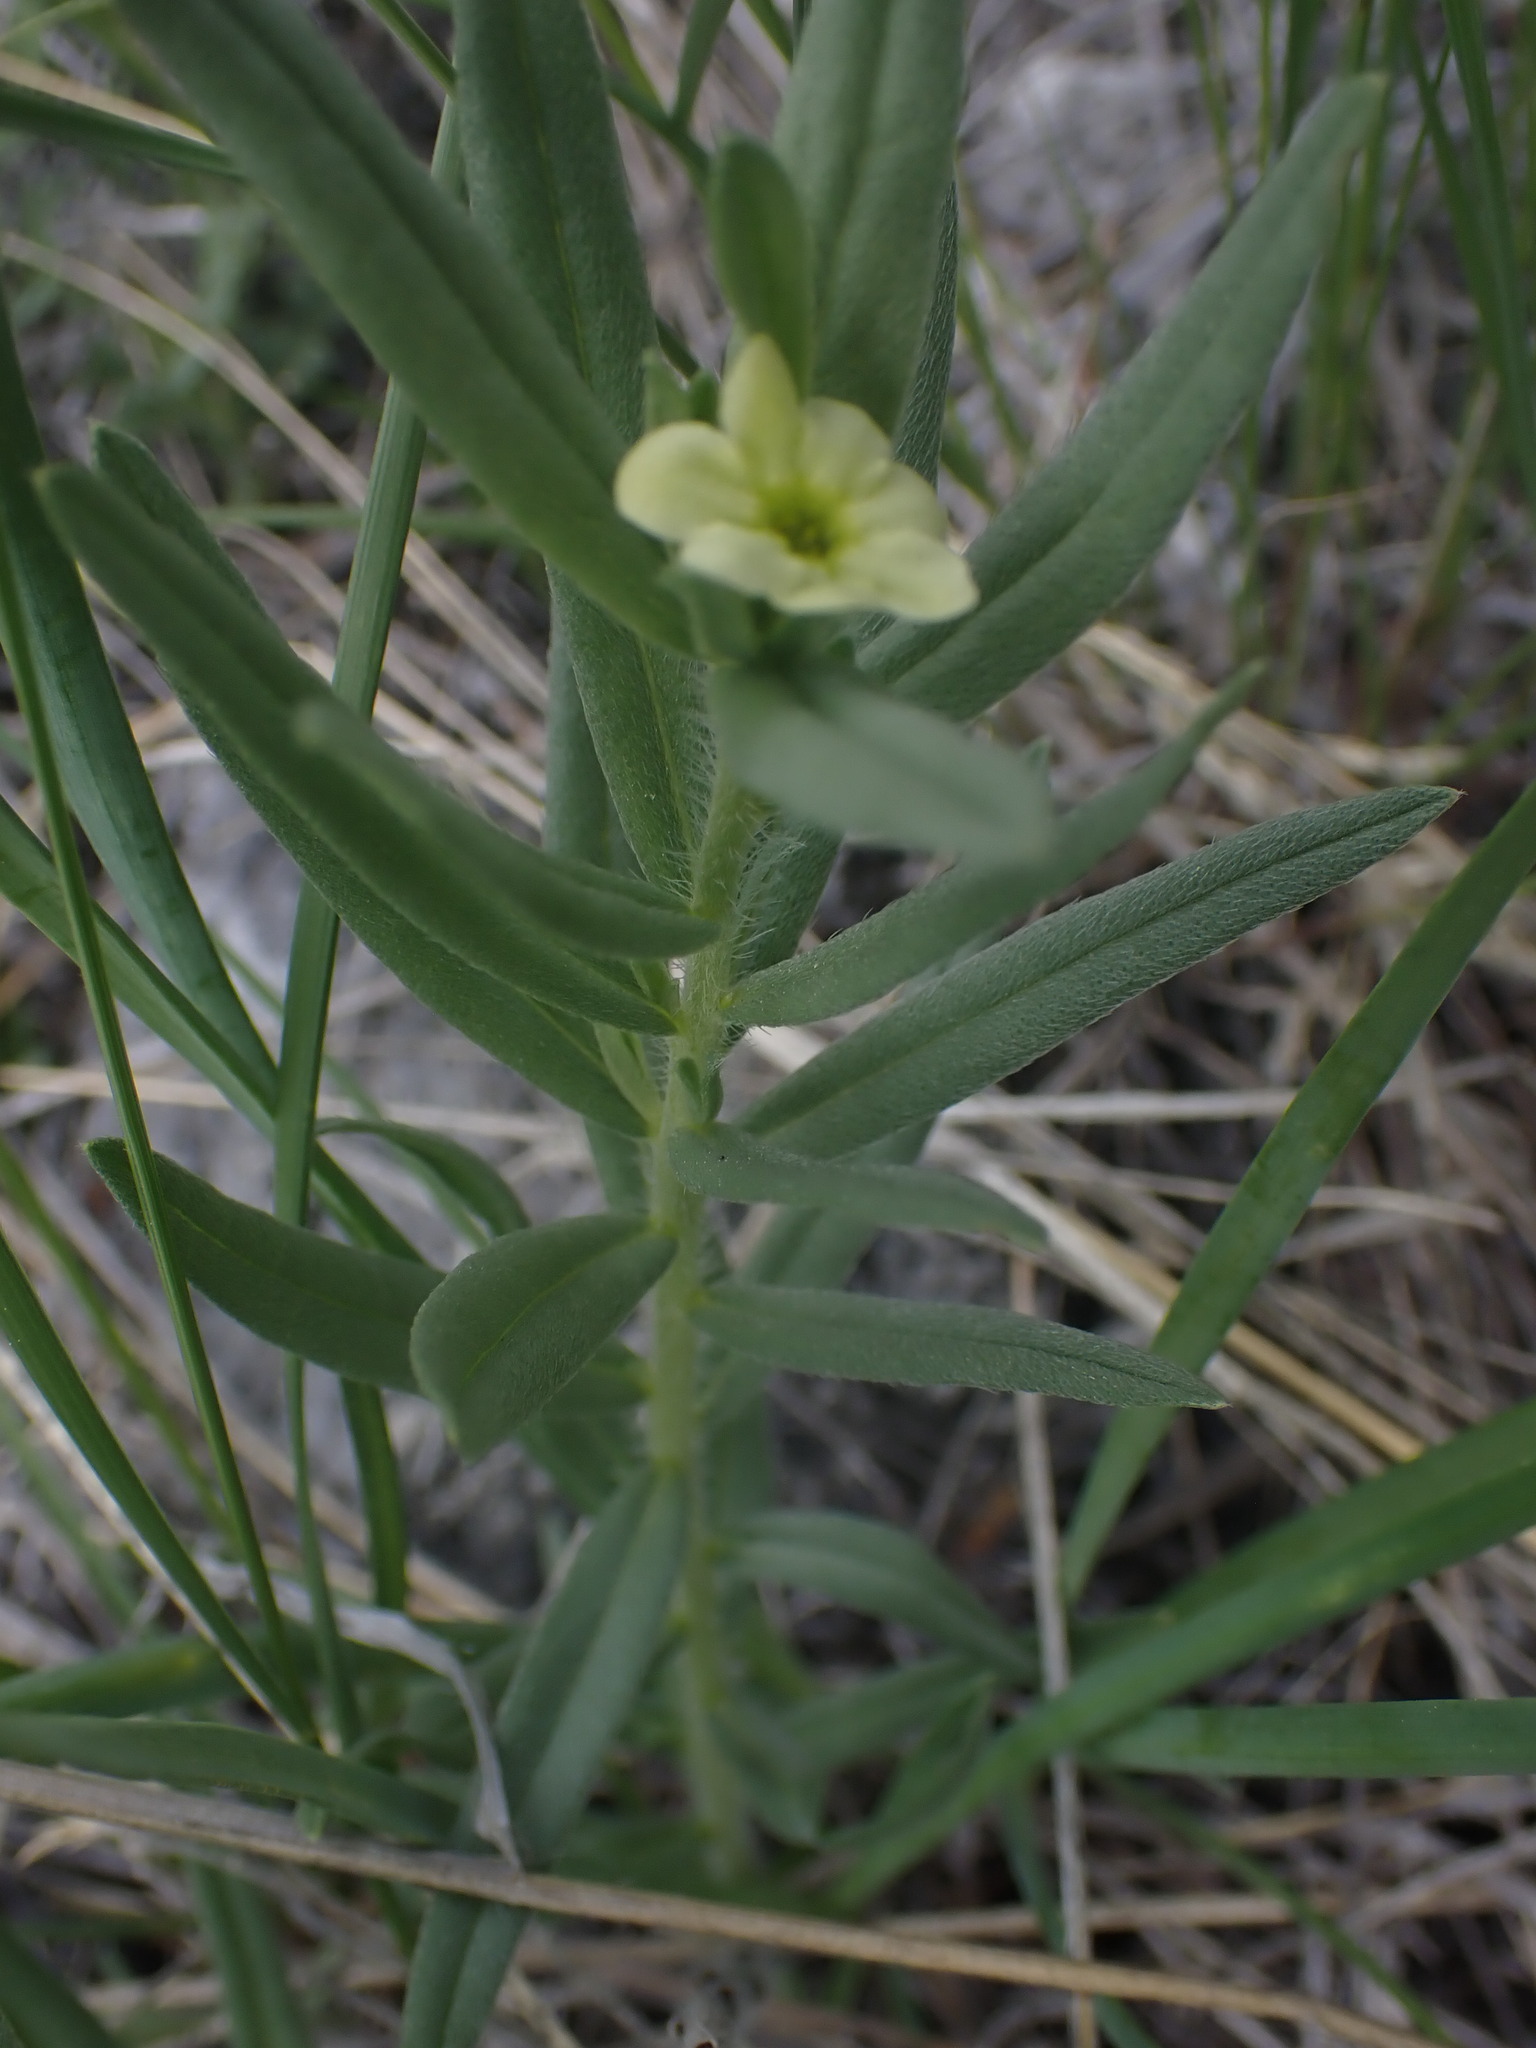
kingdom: Plantae
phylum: Tracheophyta
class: Magnoliopsida
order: Boraginales
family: Boraginaceae
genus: Lithospermum
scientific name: Lithospermum ruderale
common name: Western gromwell
